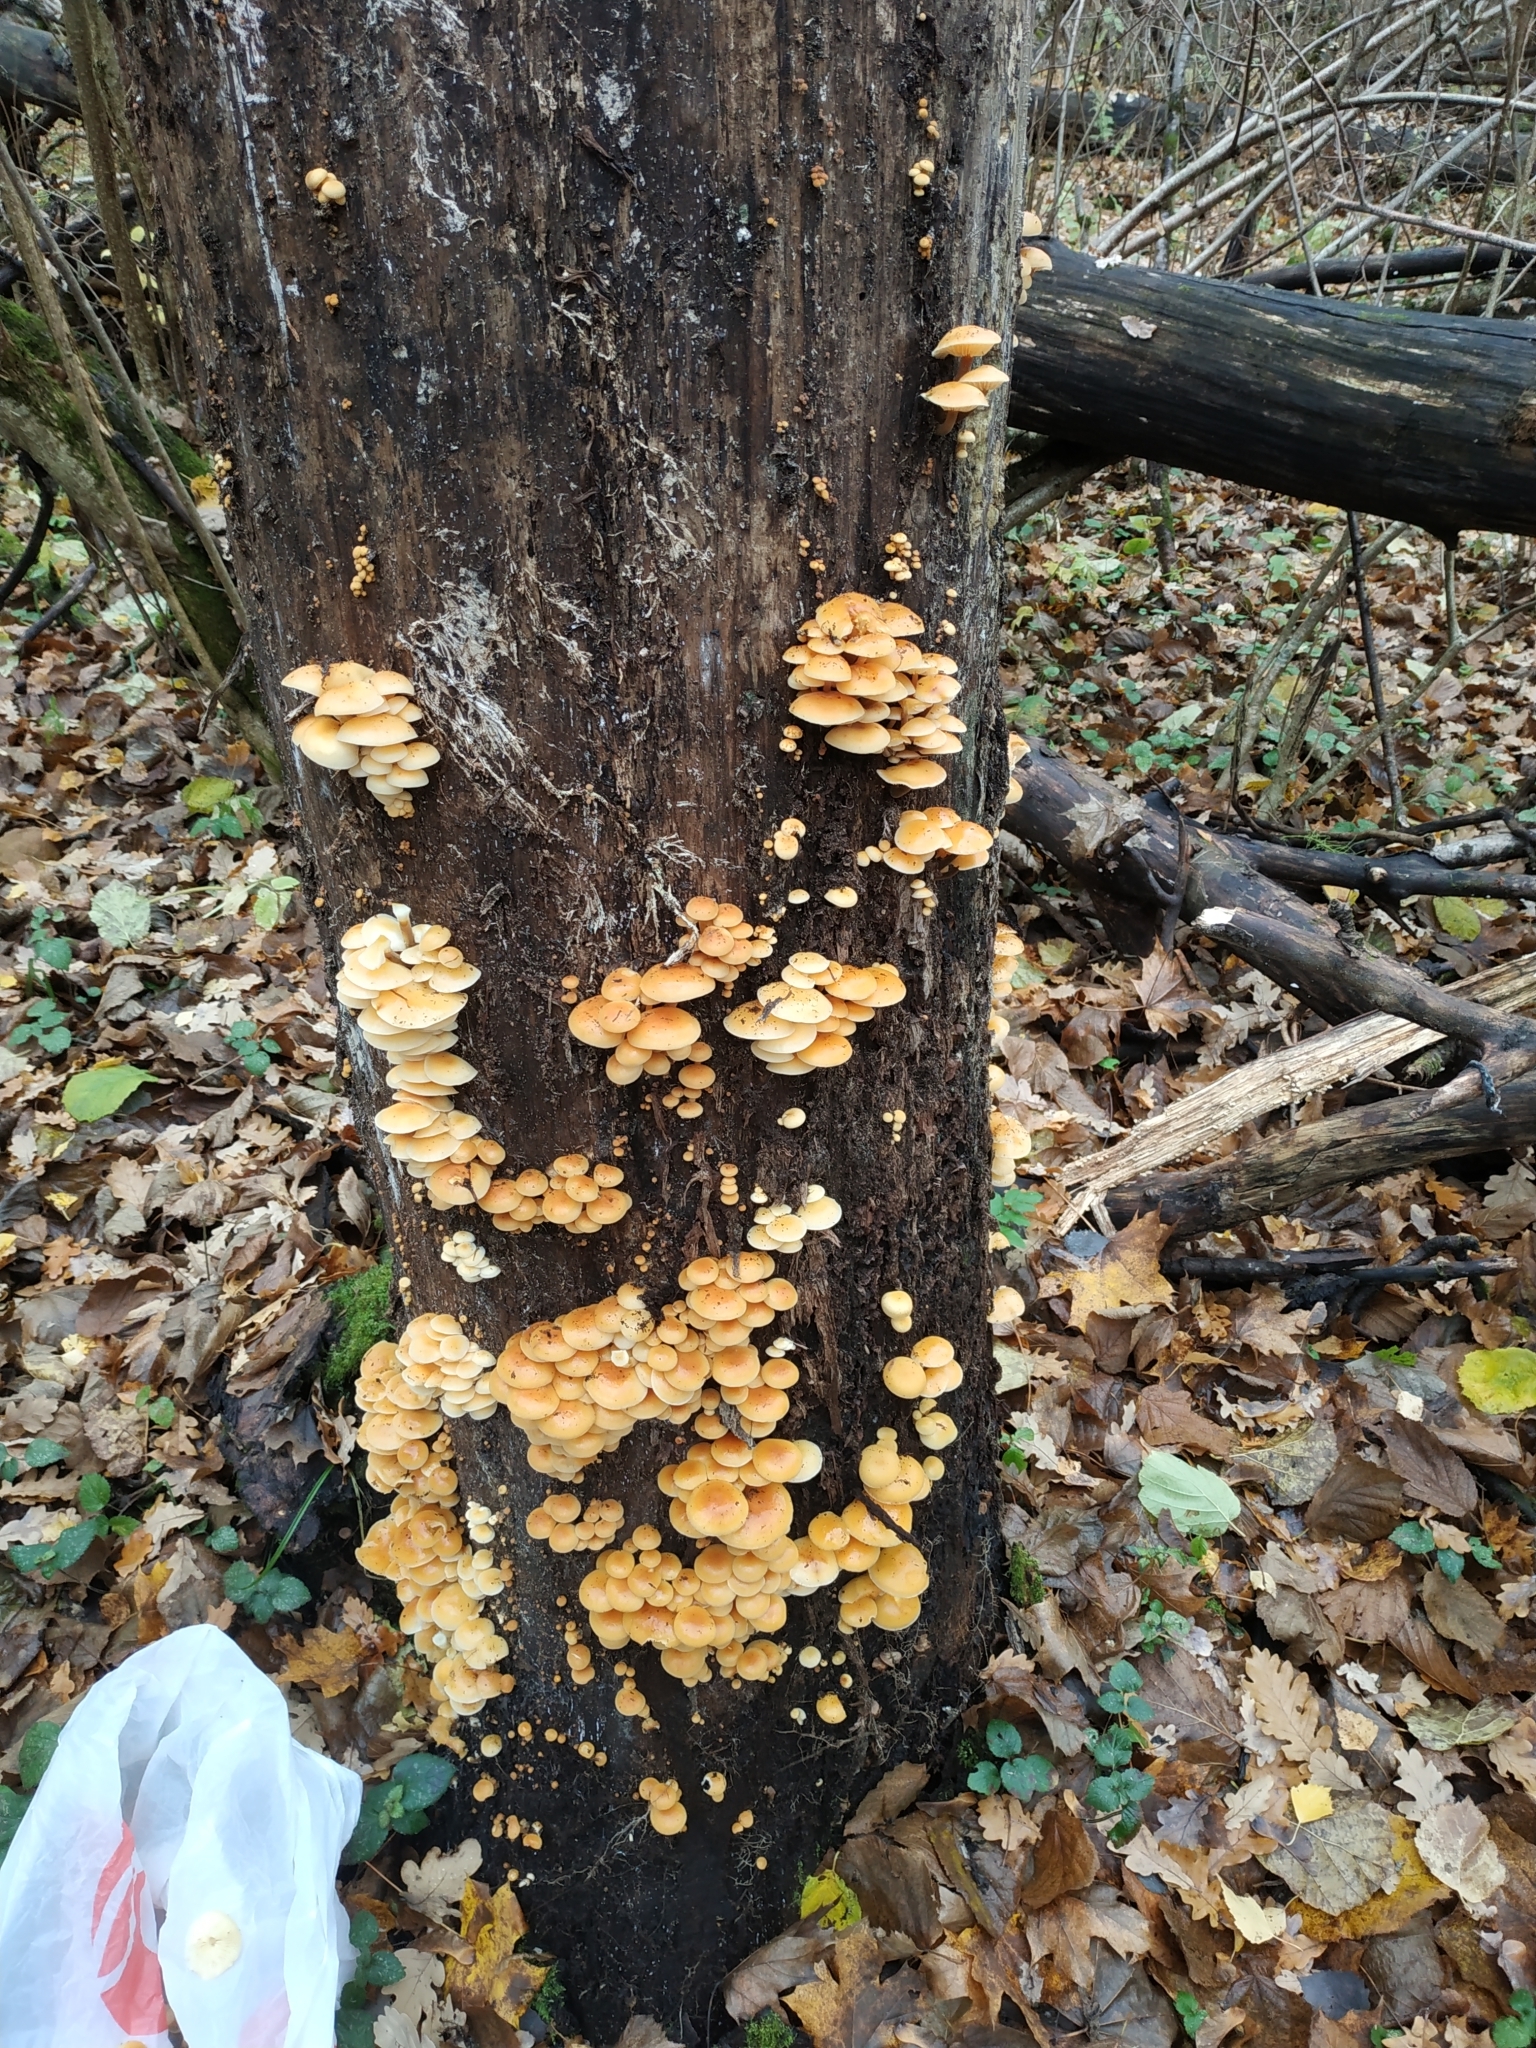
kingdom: Fungi
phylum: Basidiomycota
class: Agaricomycetes
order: Agaricales
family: Physalacriaceae
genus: Flammulina
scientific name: Flammulina
